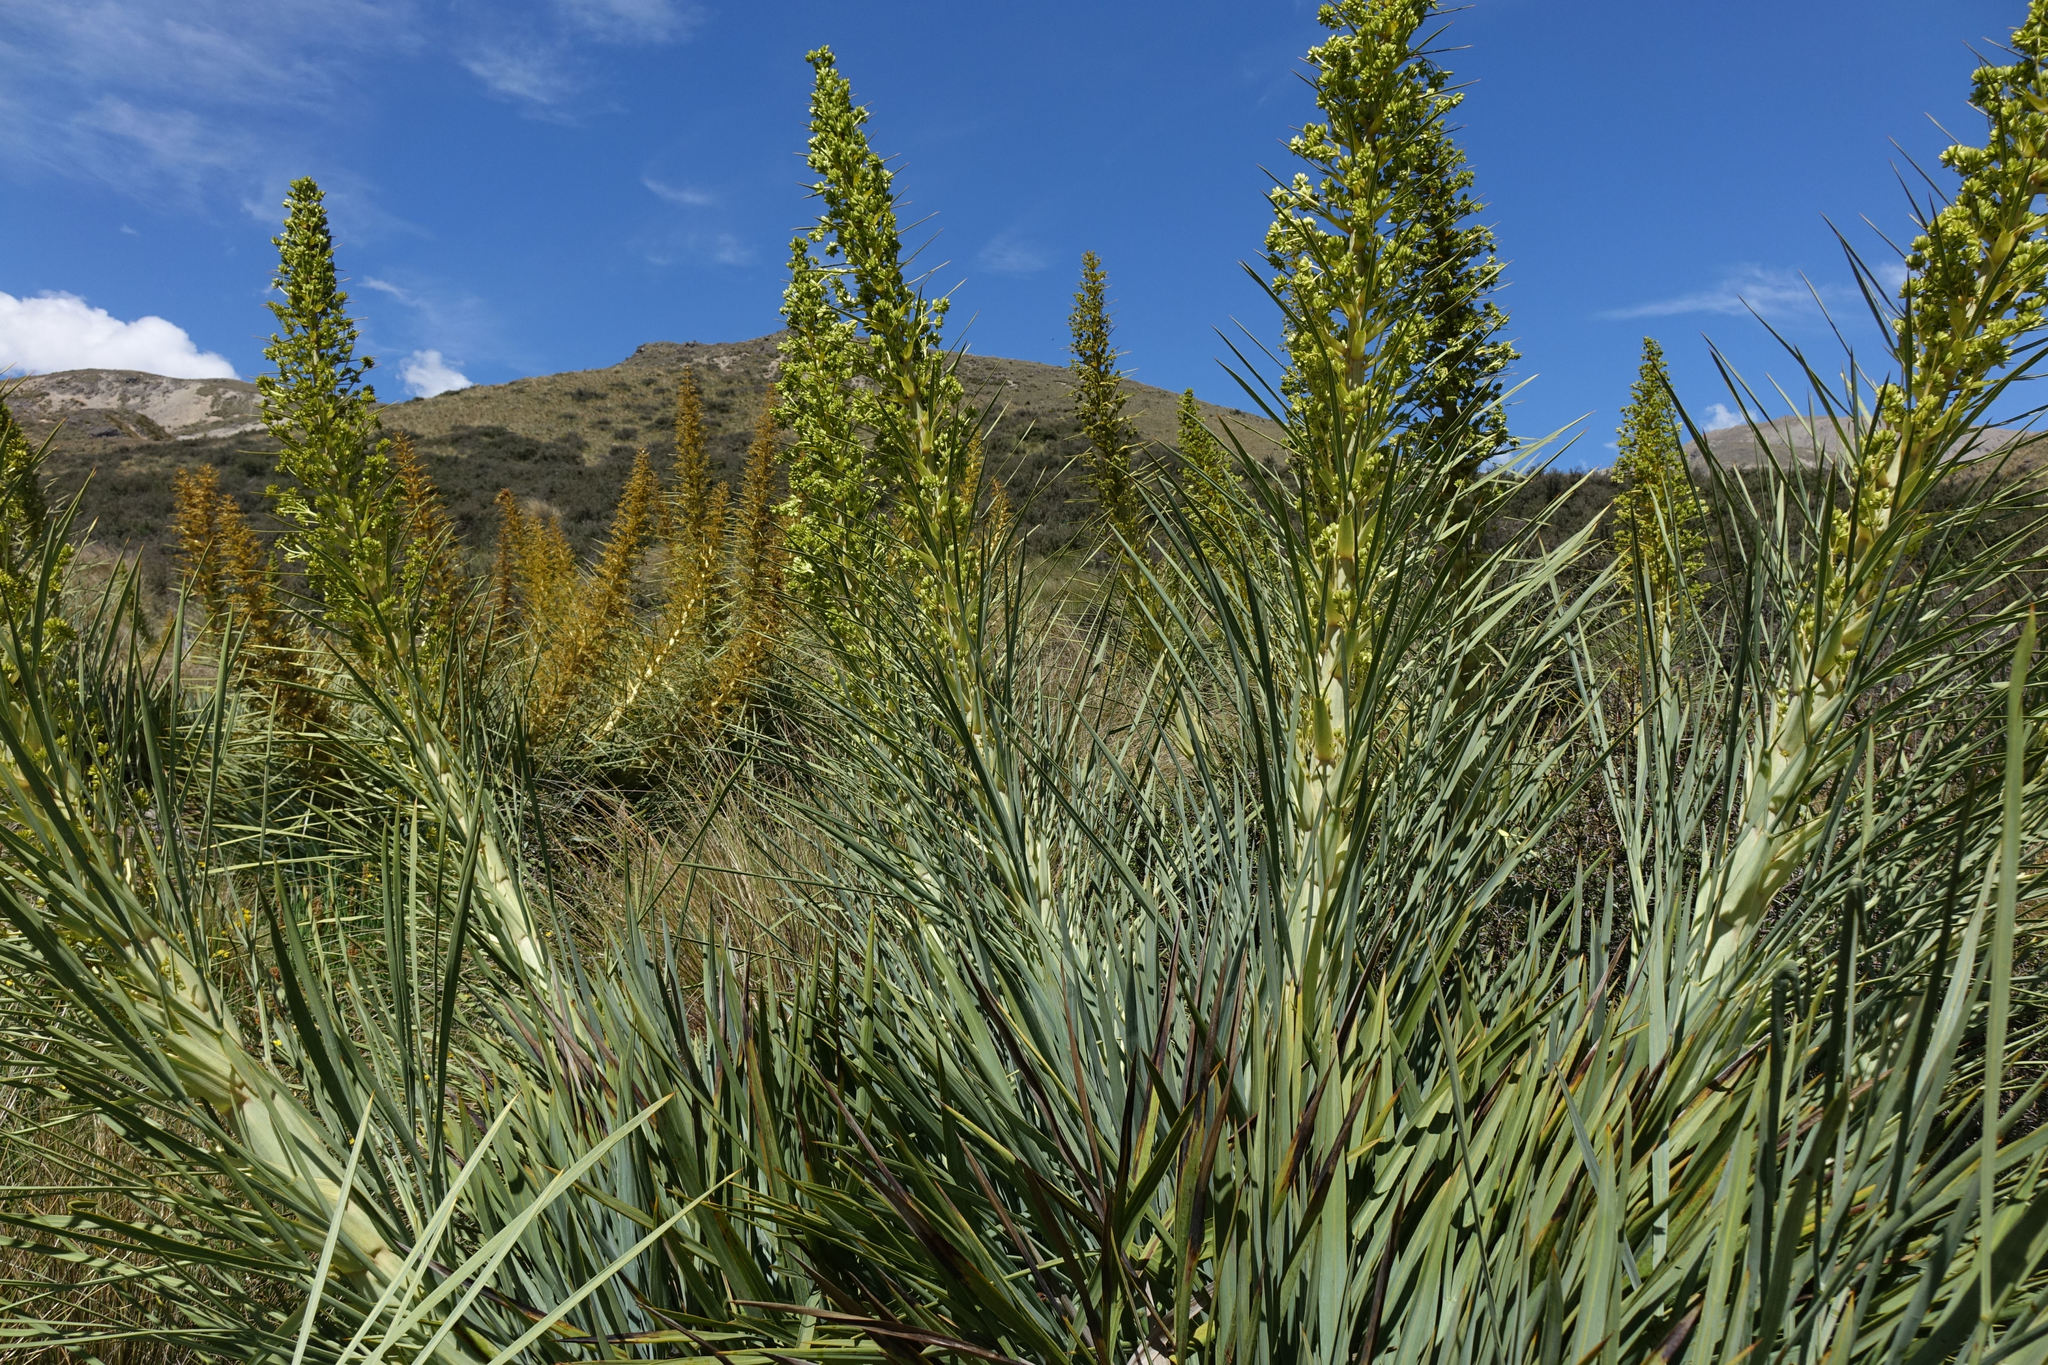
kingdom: Plantae
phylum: Tracheophyta
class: Magnoliopsida
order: Apiales
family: Apiaceae
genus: Aciphylla
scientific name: Aciphylla scott-thomsonii
